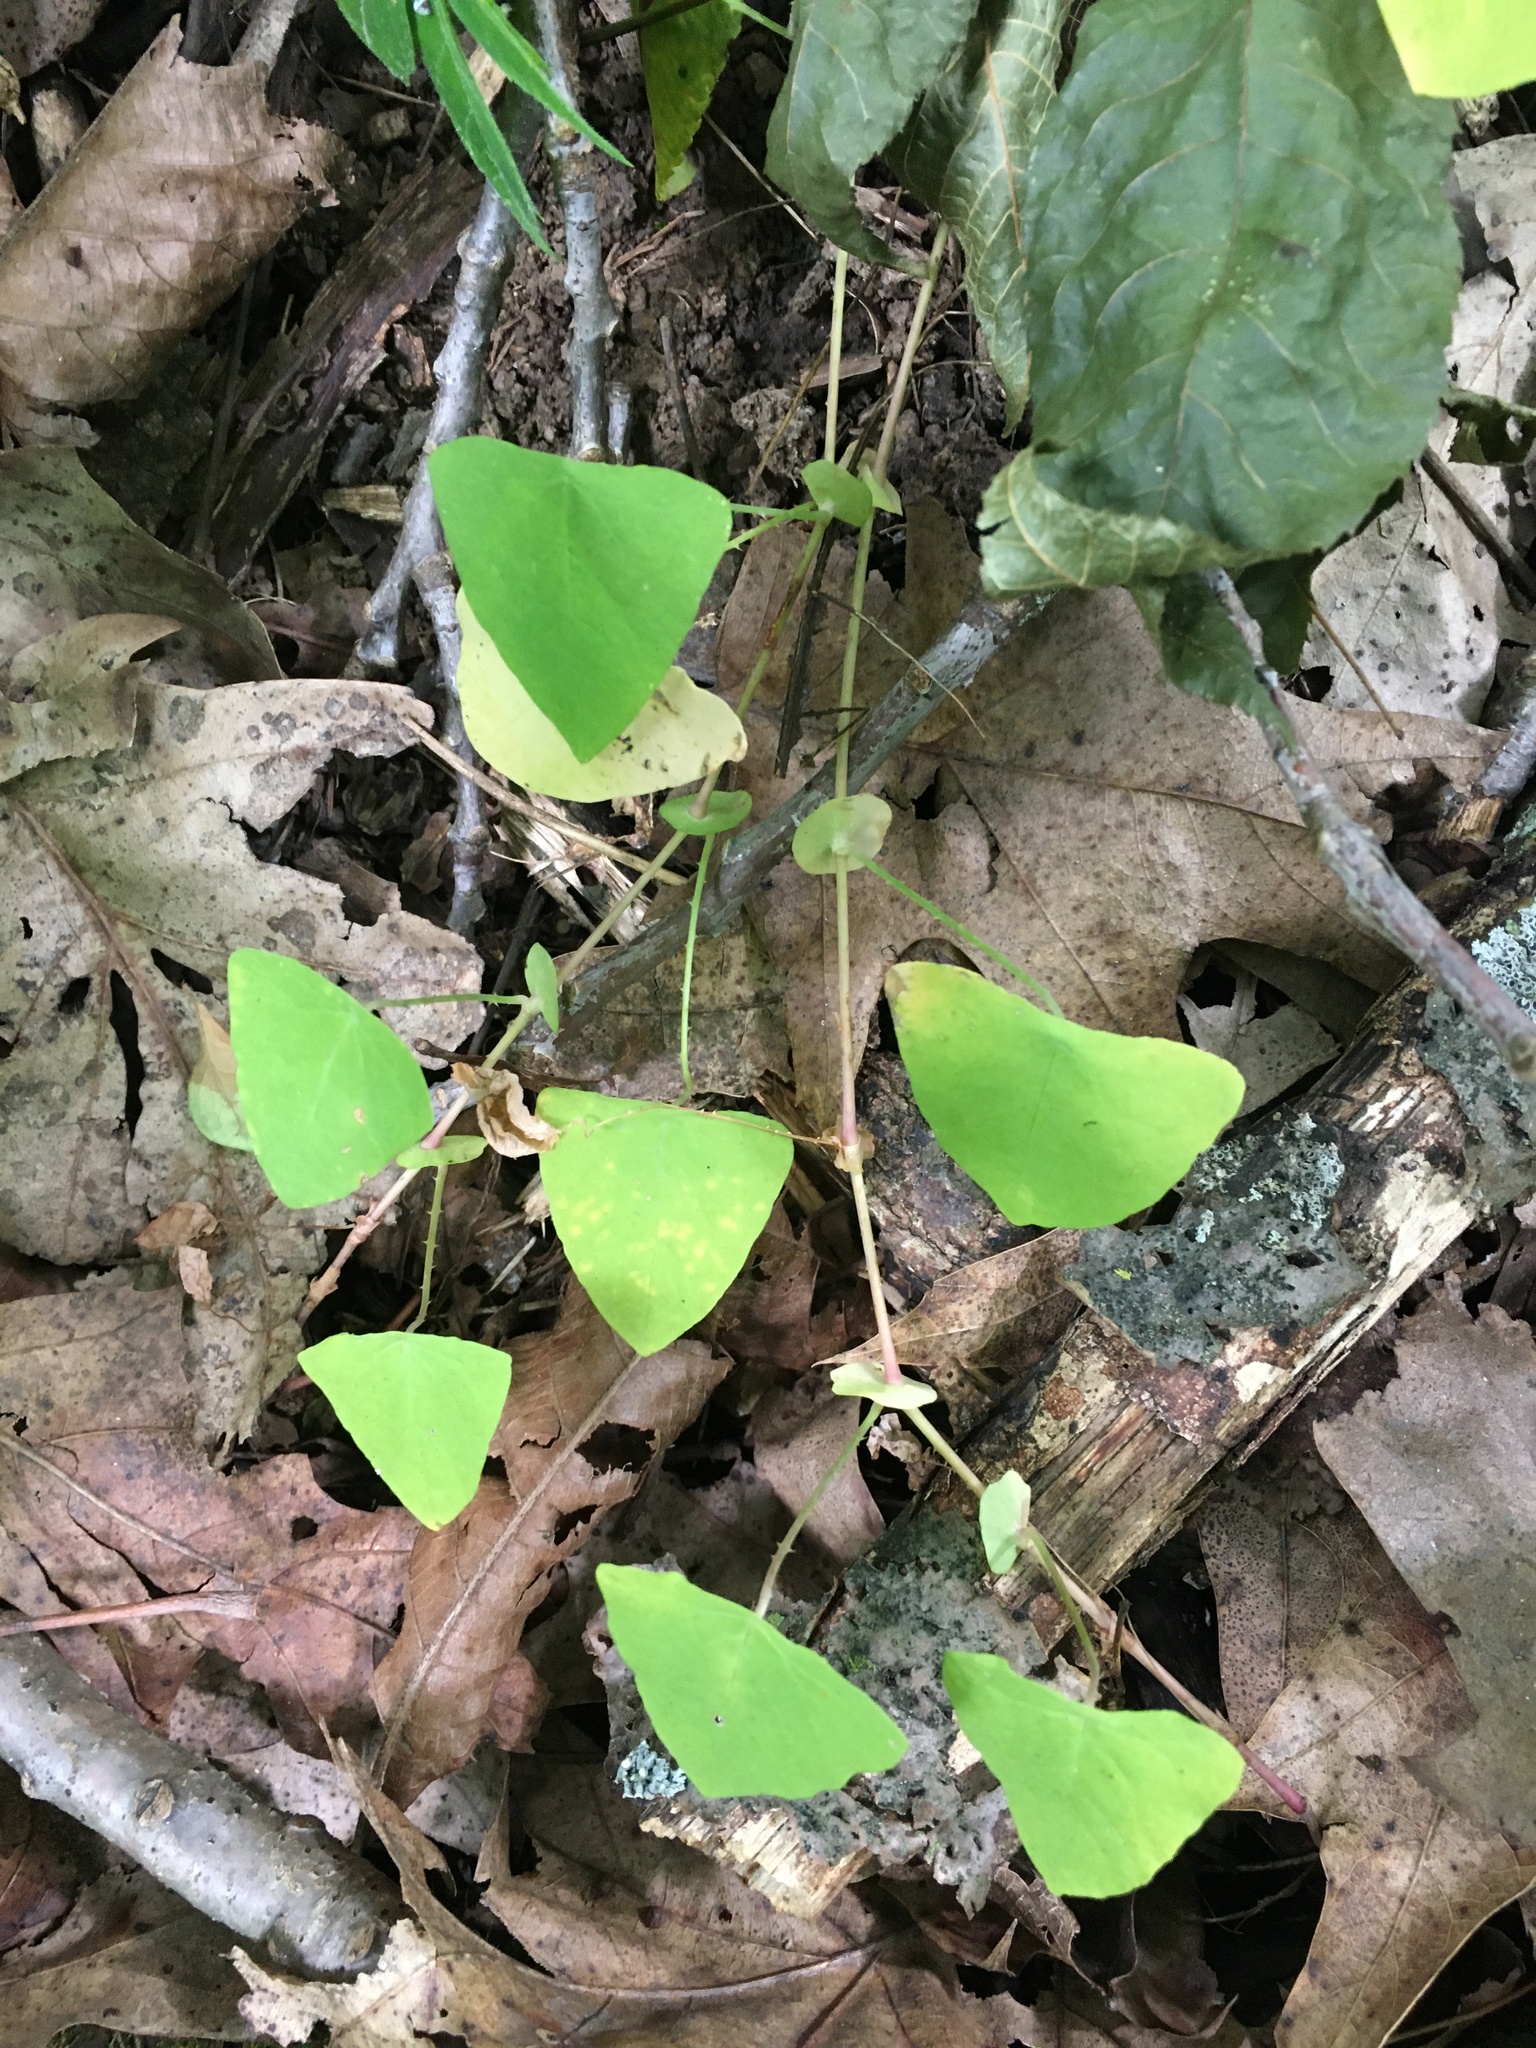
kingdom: Plantae
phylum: Tracheophyta
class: Magnoliopsida
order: Caryophyllales
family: Polygonaceae
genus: Persicaria
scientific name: Persicaria perfoliata
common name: Asiatic tearthumb
